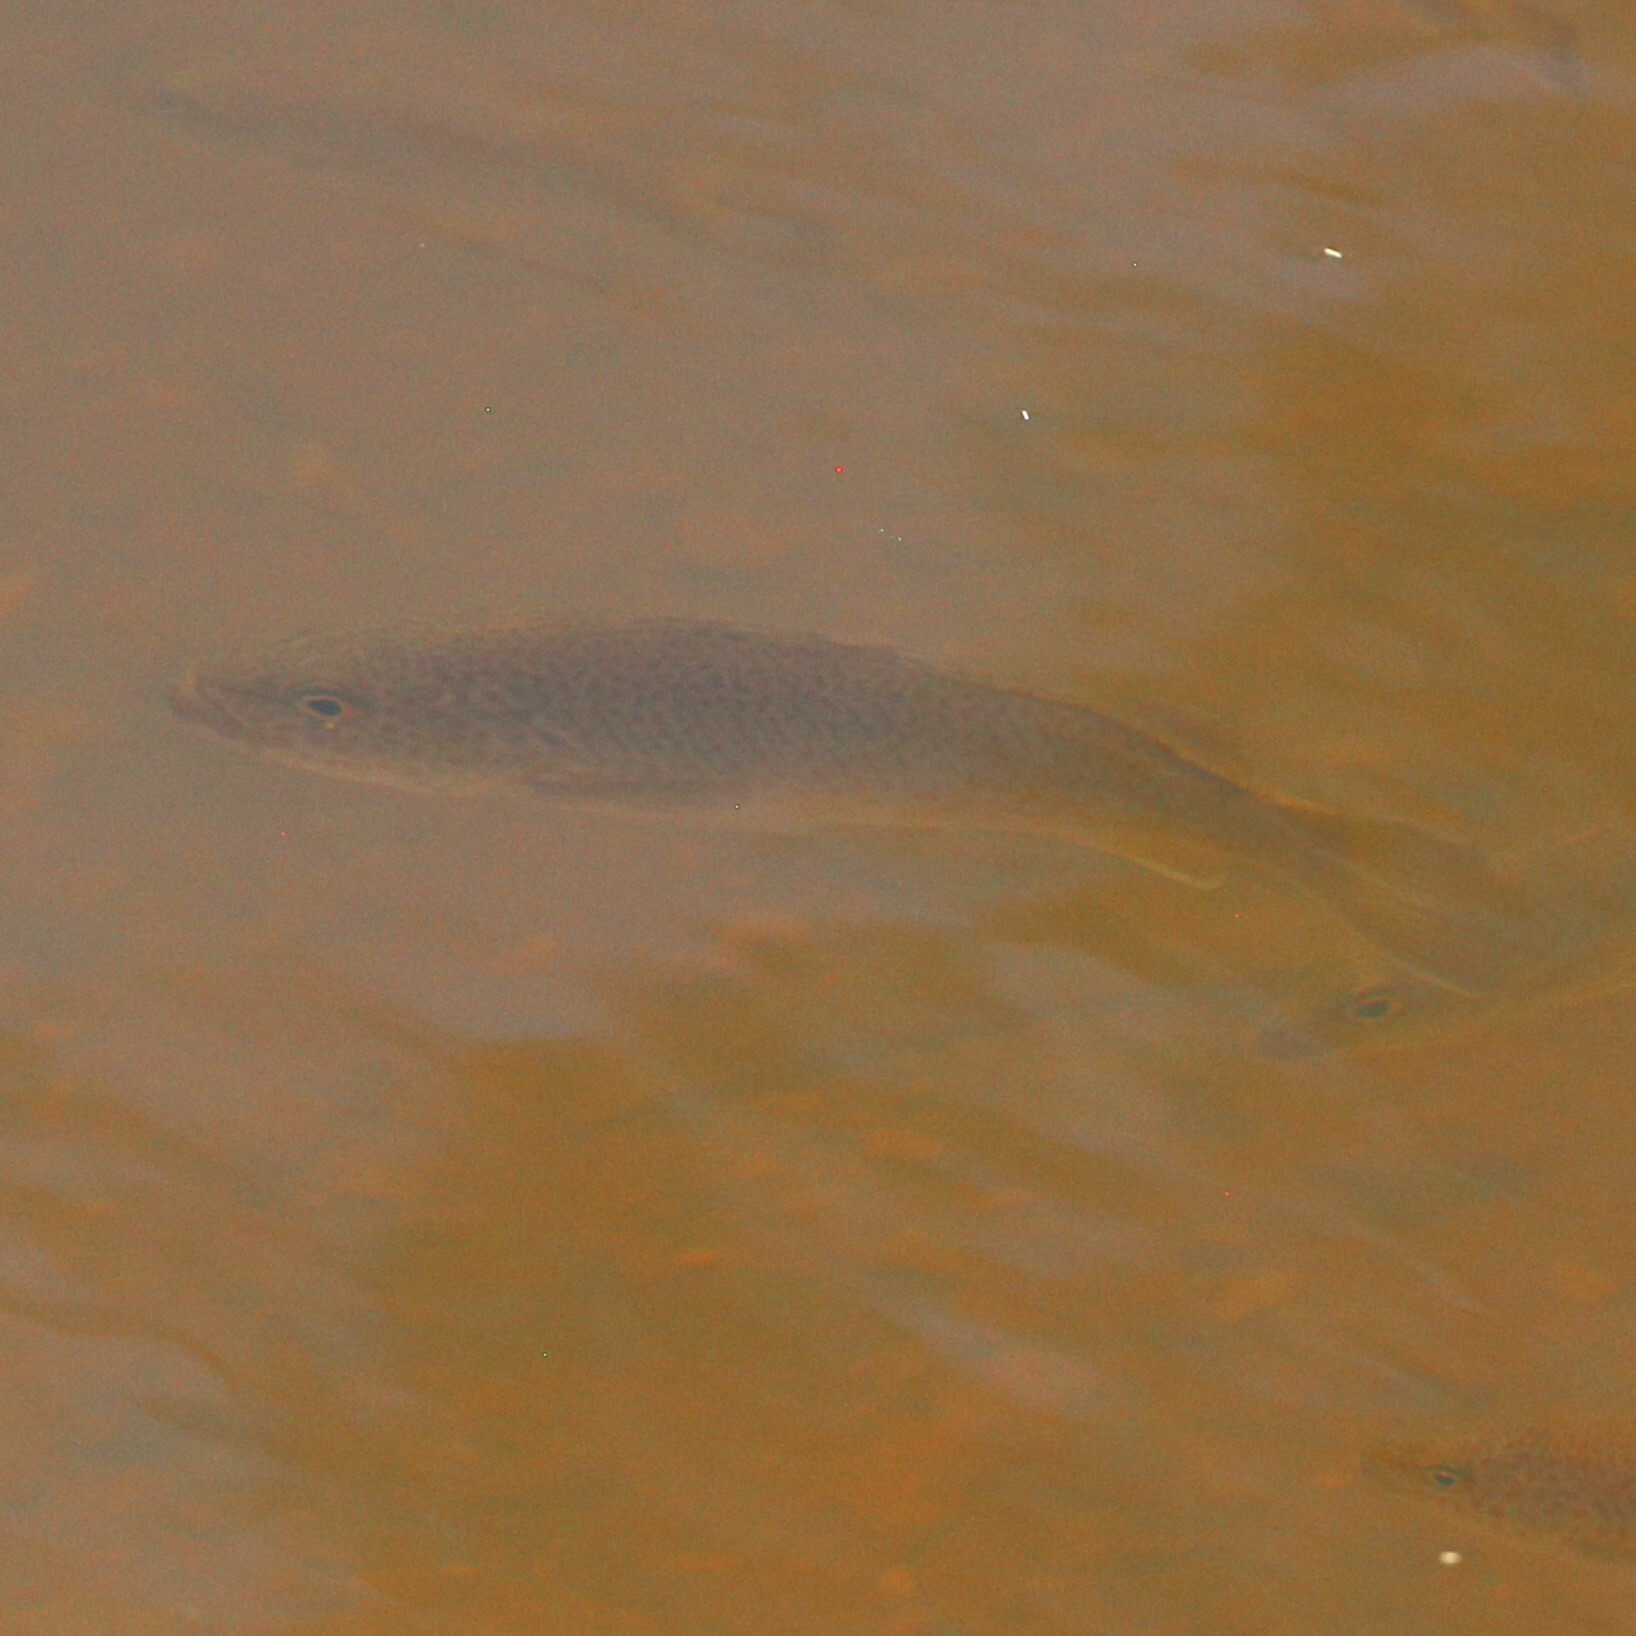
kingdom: Animalia
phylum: Chordata
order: Perciformes
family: Terapontidae
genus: Leiopotherapon
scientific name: Leiopotherapon unicolor
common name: Bobby
